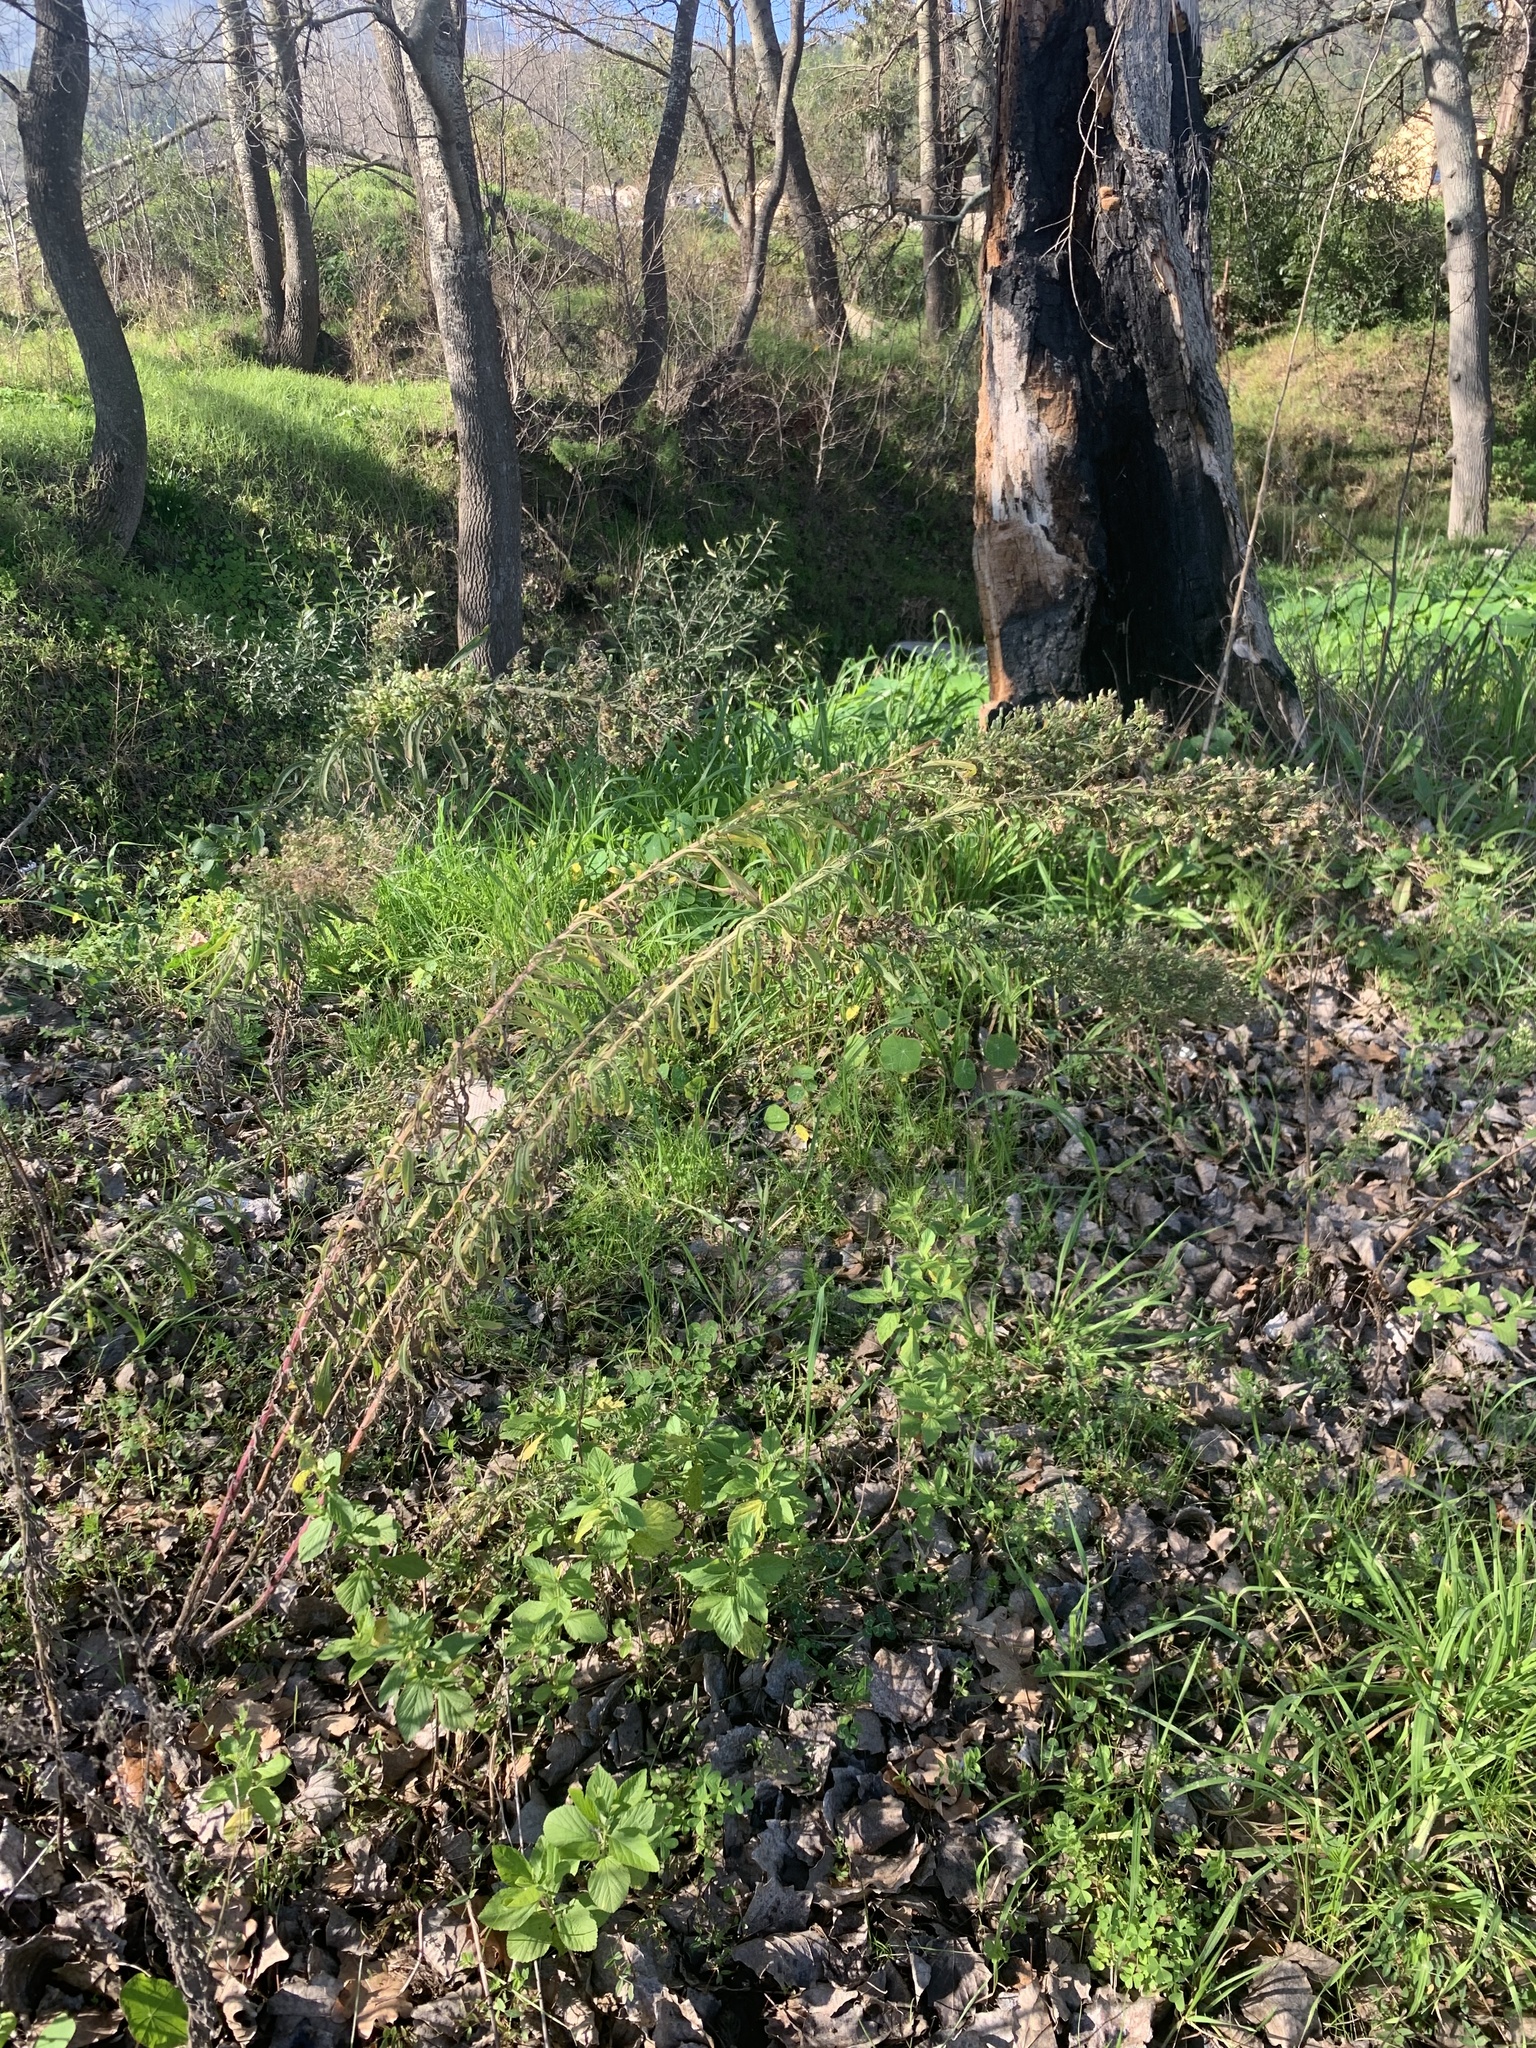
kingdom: Plantae
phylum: Tracheophyta
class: Magnoliopsida
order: Asterales
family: Asteraceae
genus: Erigeron
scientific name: Erigeron sumatrensis
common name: Daisy
